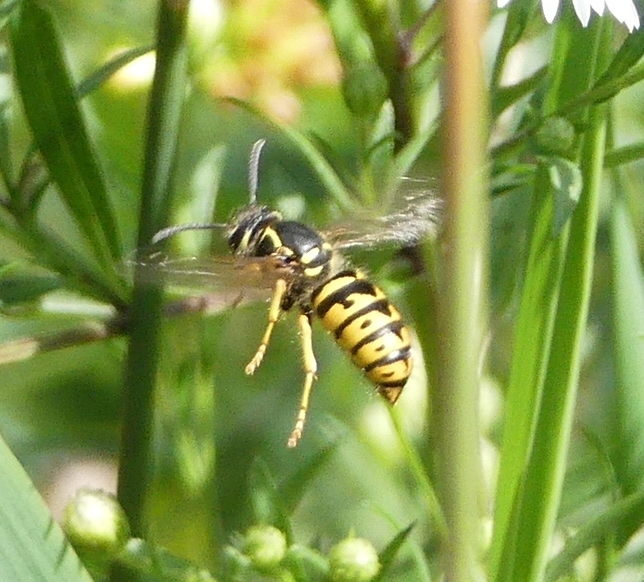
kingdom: Animalia
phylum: Arthropoda
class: Insecta
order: Hymenoptera
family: Vespidae
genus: Dolichovespula
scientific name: Dolichovespula arenaria
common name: Aerial yellowjacket
